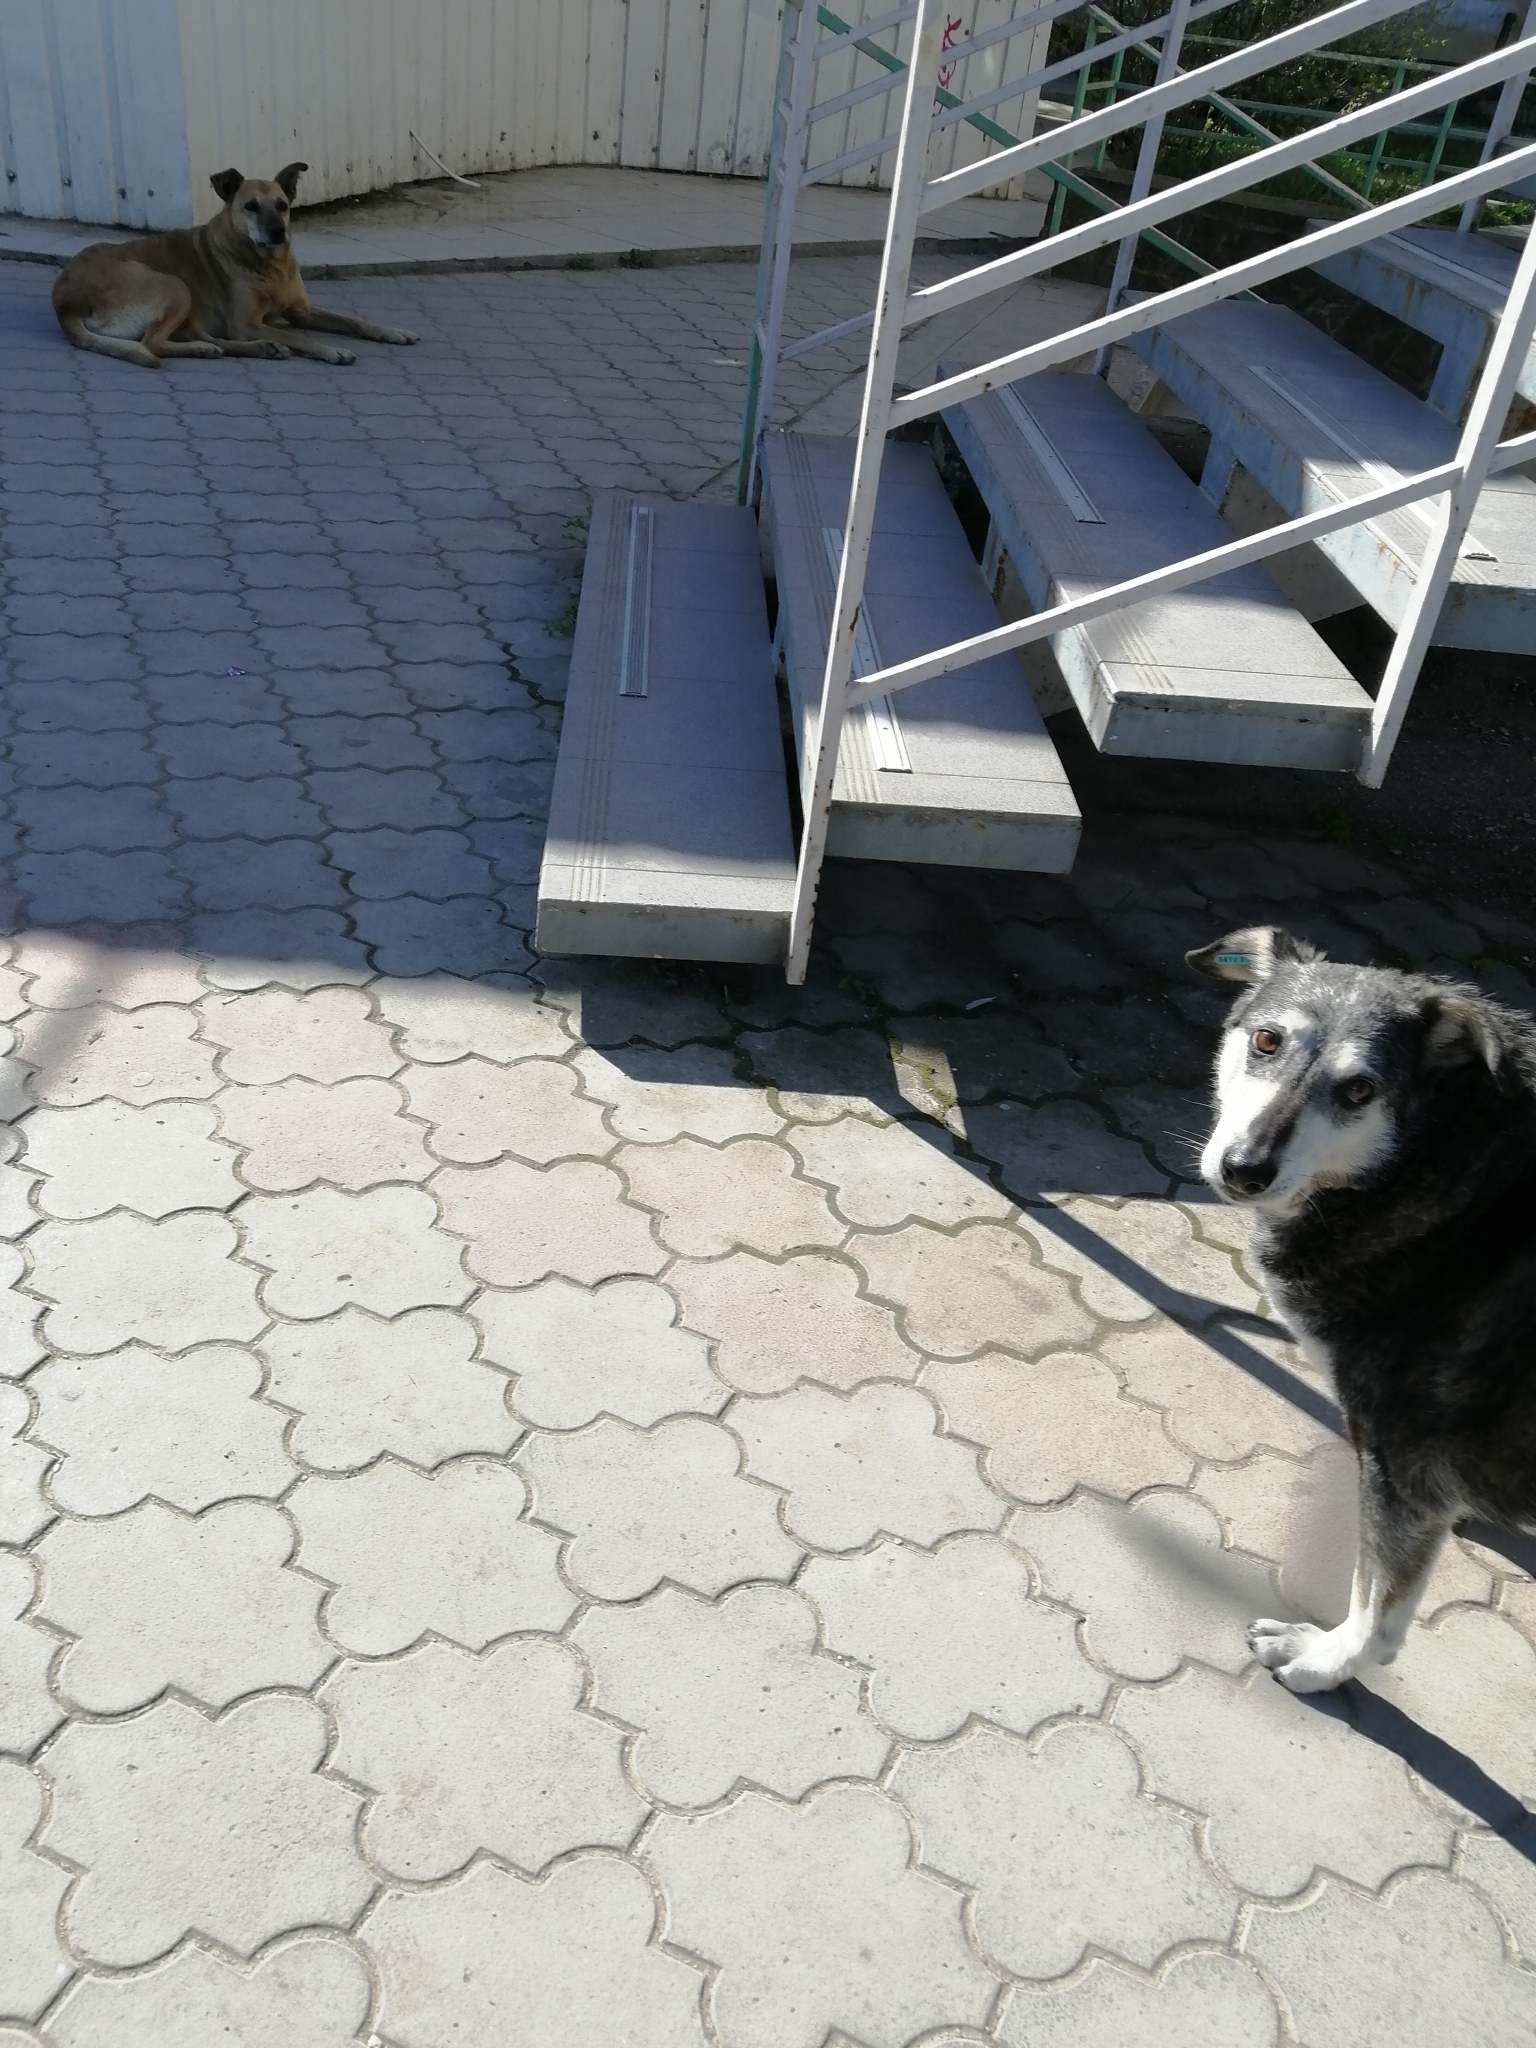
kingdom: Animalia
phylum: Chordata
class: Mammalia
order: Carnivora
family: Canidae
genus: Canis
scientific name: Canis lupus
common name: Gray wolf
